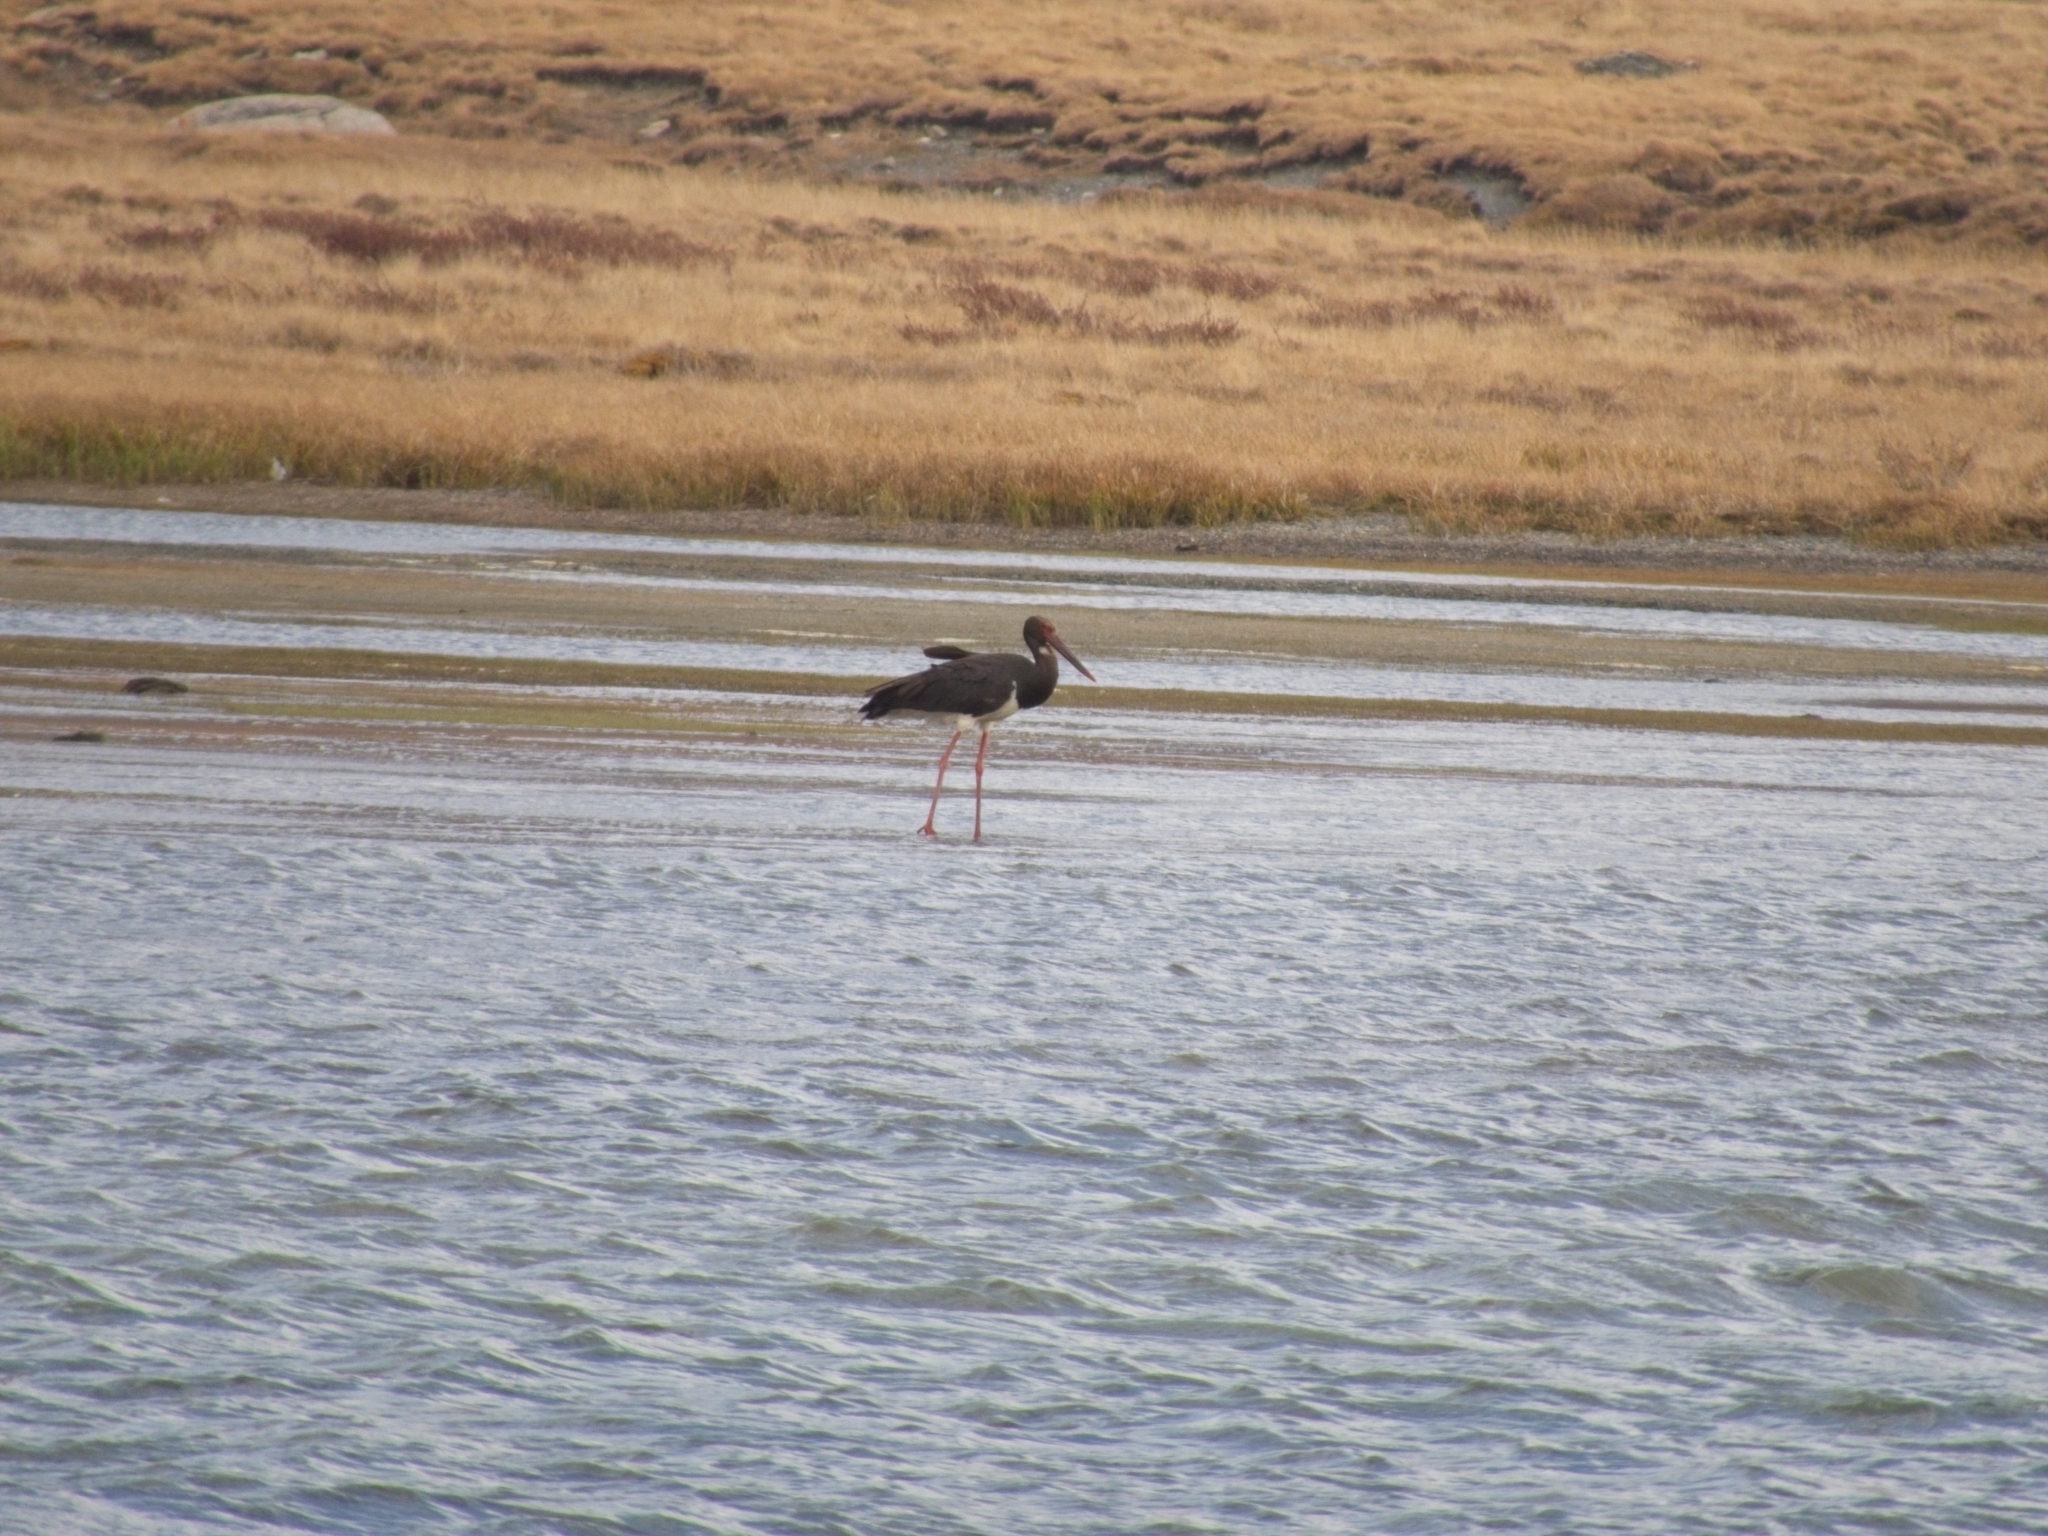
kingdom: Animalia
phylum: Chordata
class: Aves
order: Ciconiiformes
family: Ciconiidae
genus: Ciconia
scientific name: Ciconia nigra
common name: Black stork
